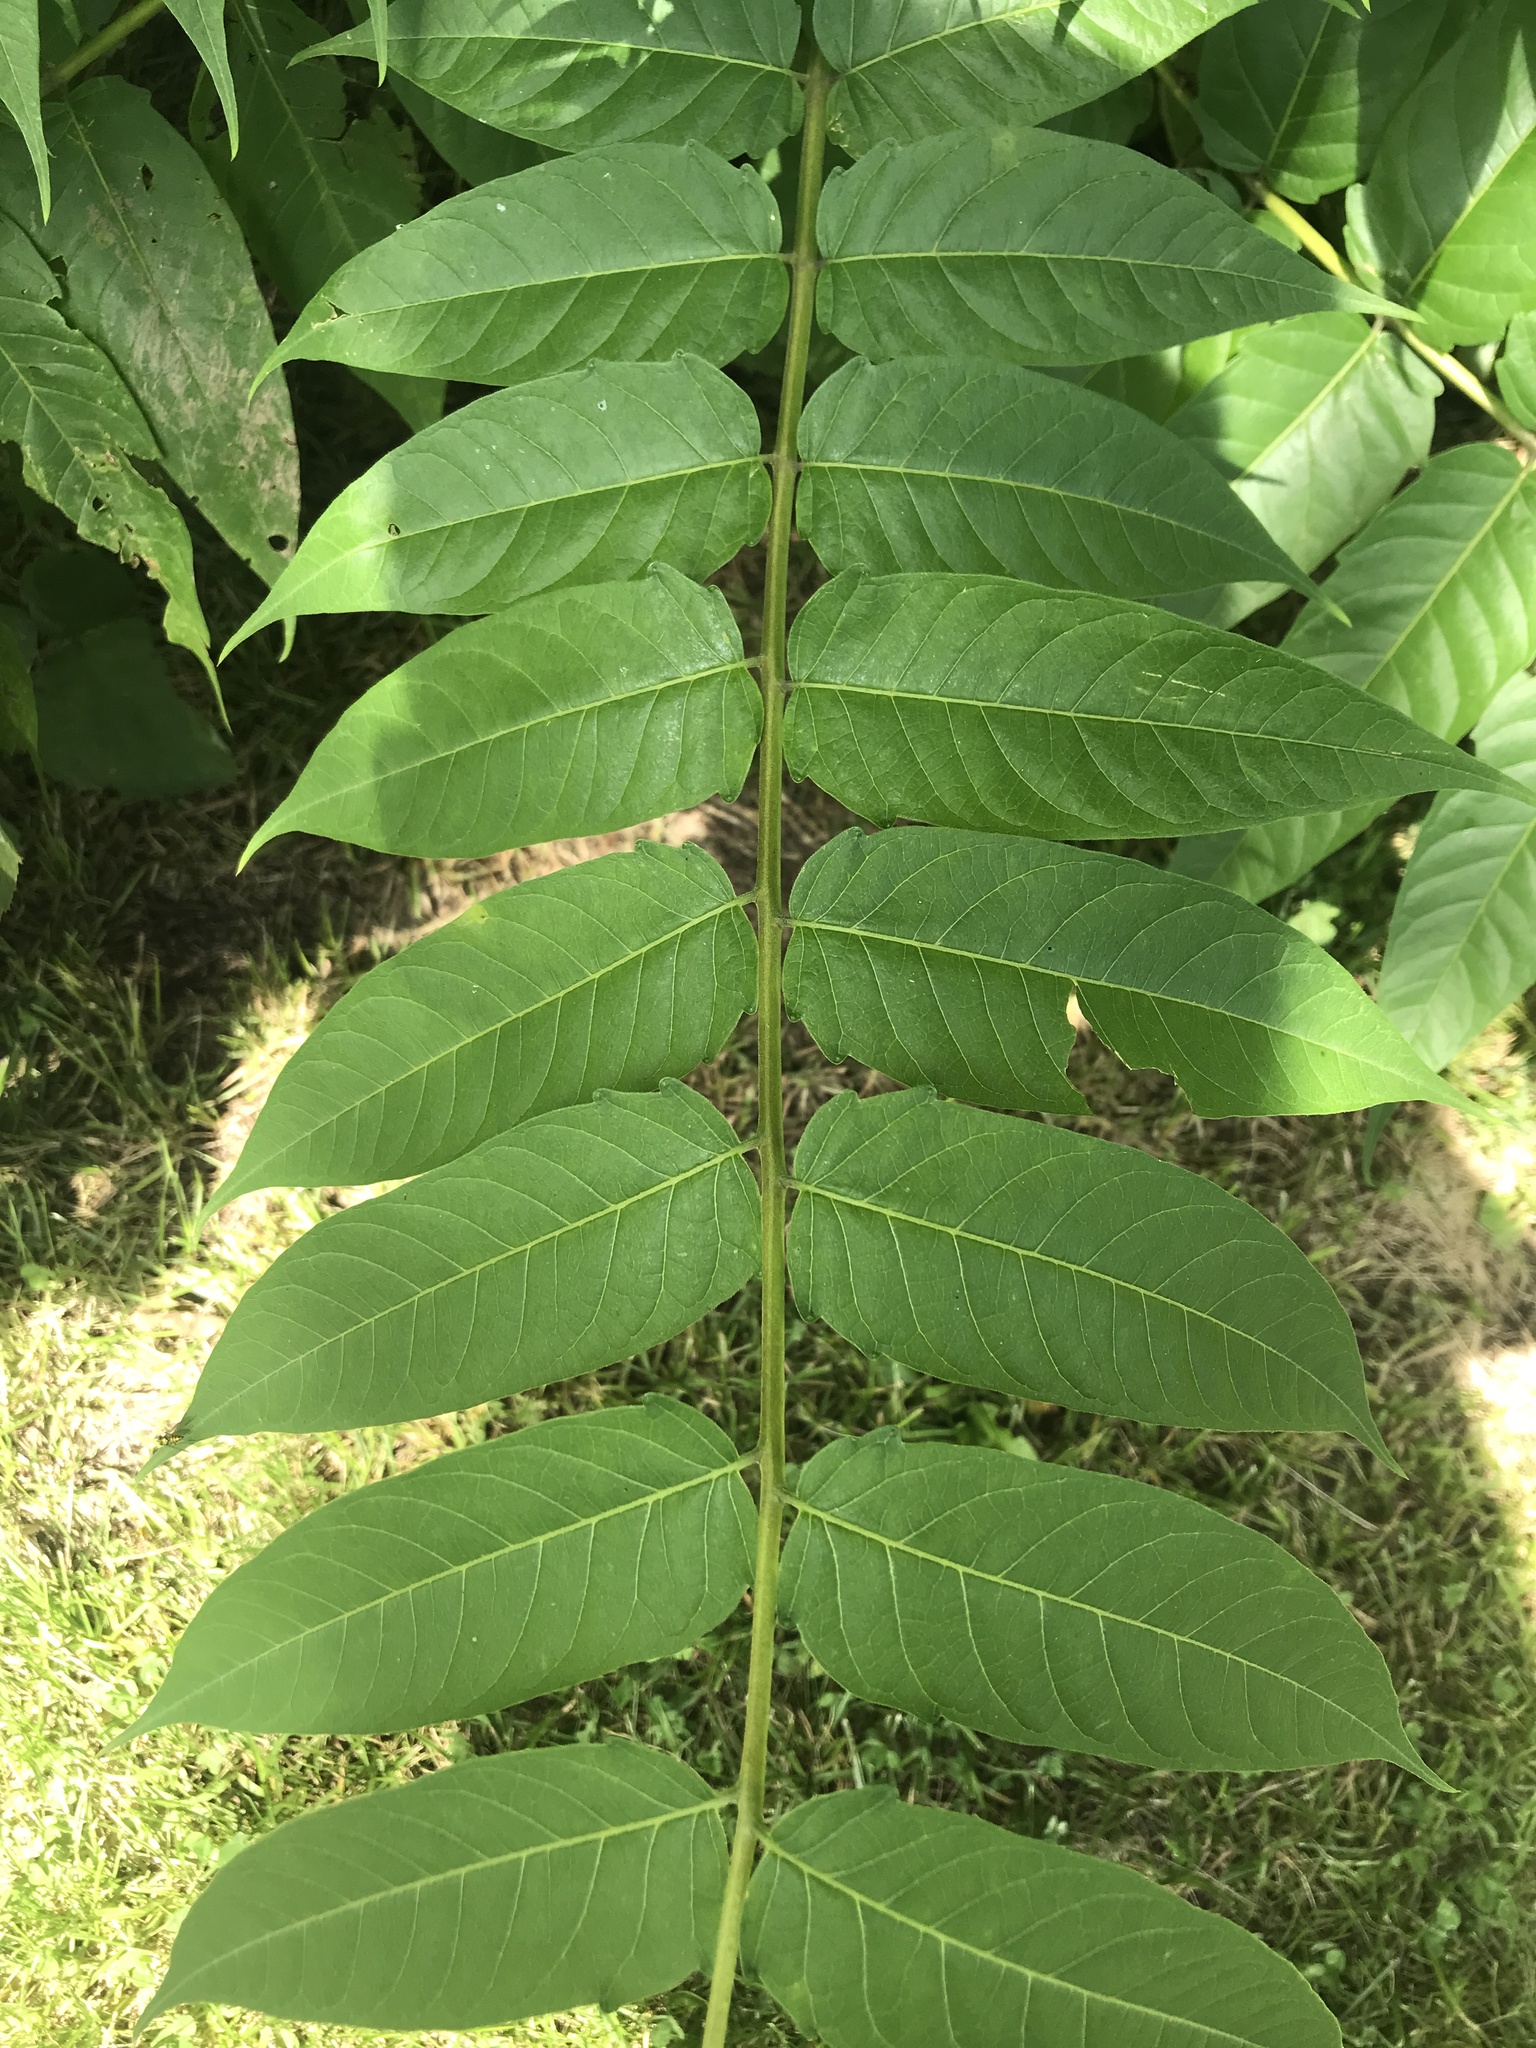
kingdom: Plantae
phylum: Tracheophyta
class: Magnoliopsida
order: Sapindales
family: Simaroubaceae
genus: Ailanthus
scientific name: Ailanthus altissima
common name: Tree-of-heaven
